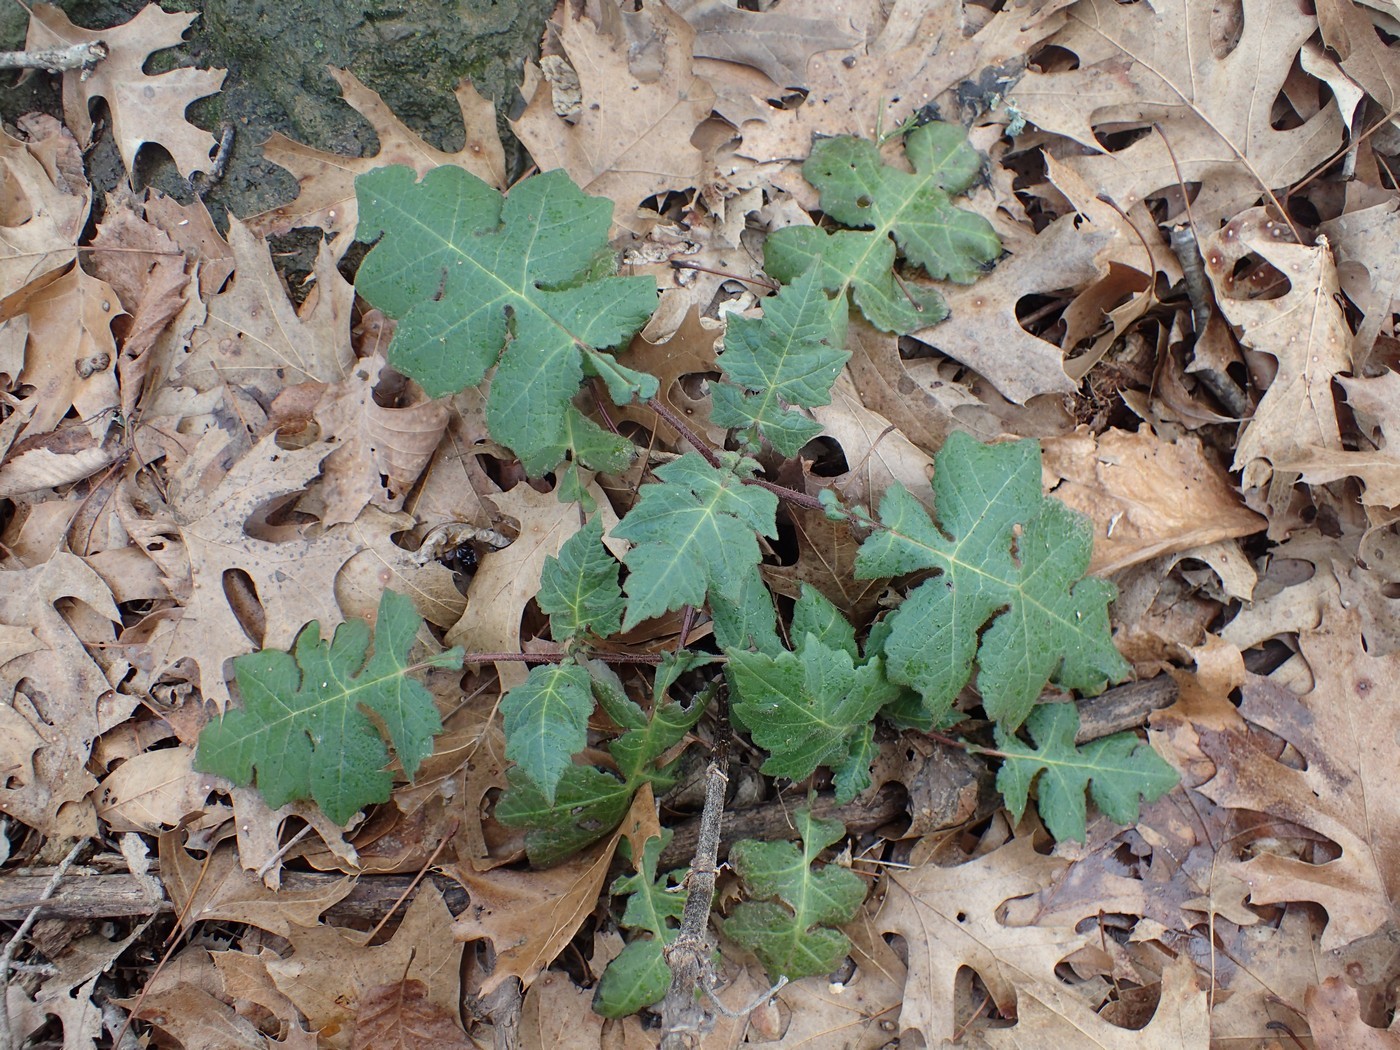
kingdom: Plantae
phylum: Tracheophyta
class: Magnoliopsida
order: Asterales
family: Asteraceae
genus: Polymnia
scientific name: Polymnia canadensis
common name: Pale-flowered leafcup
